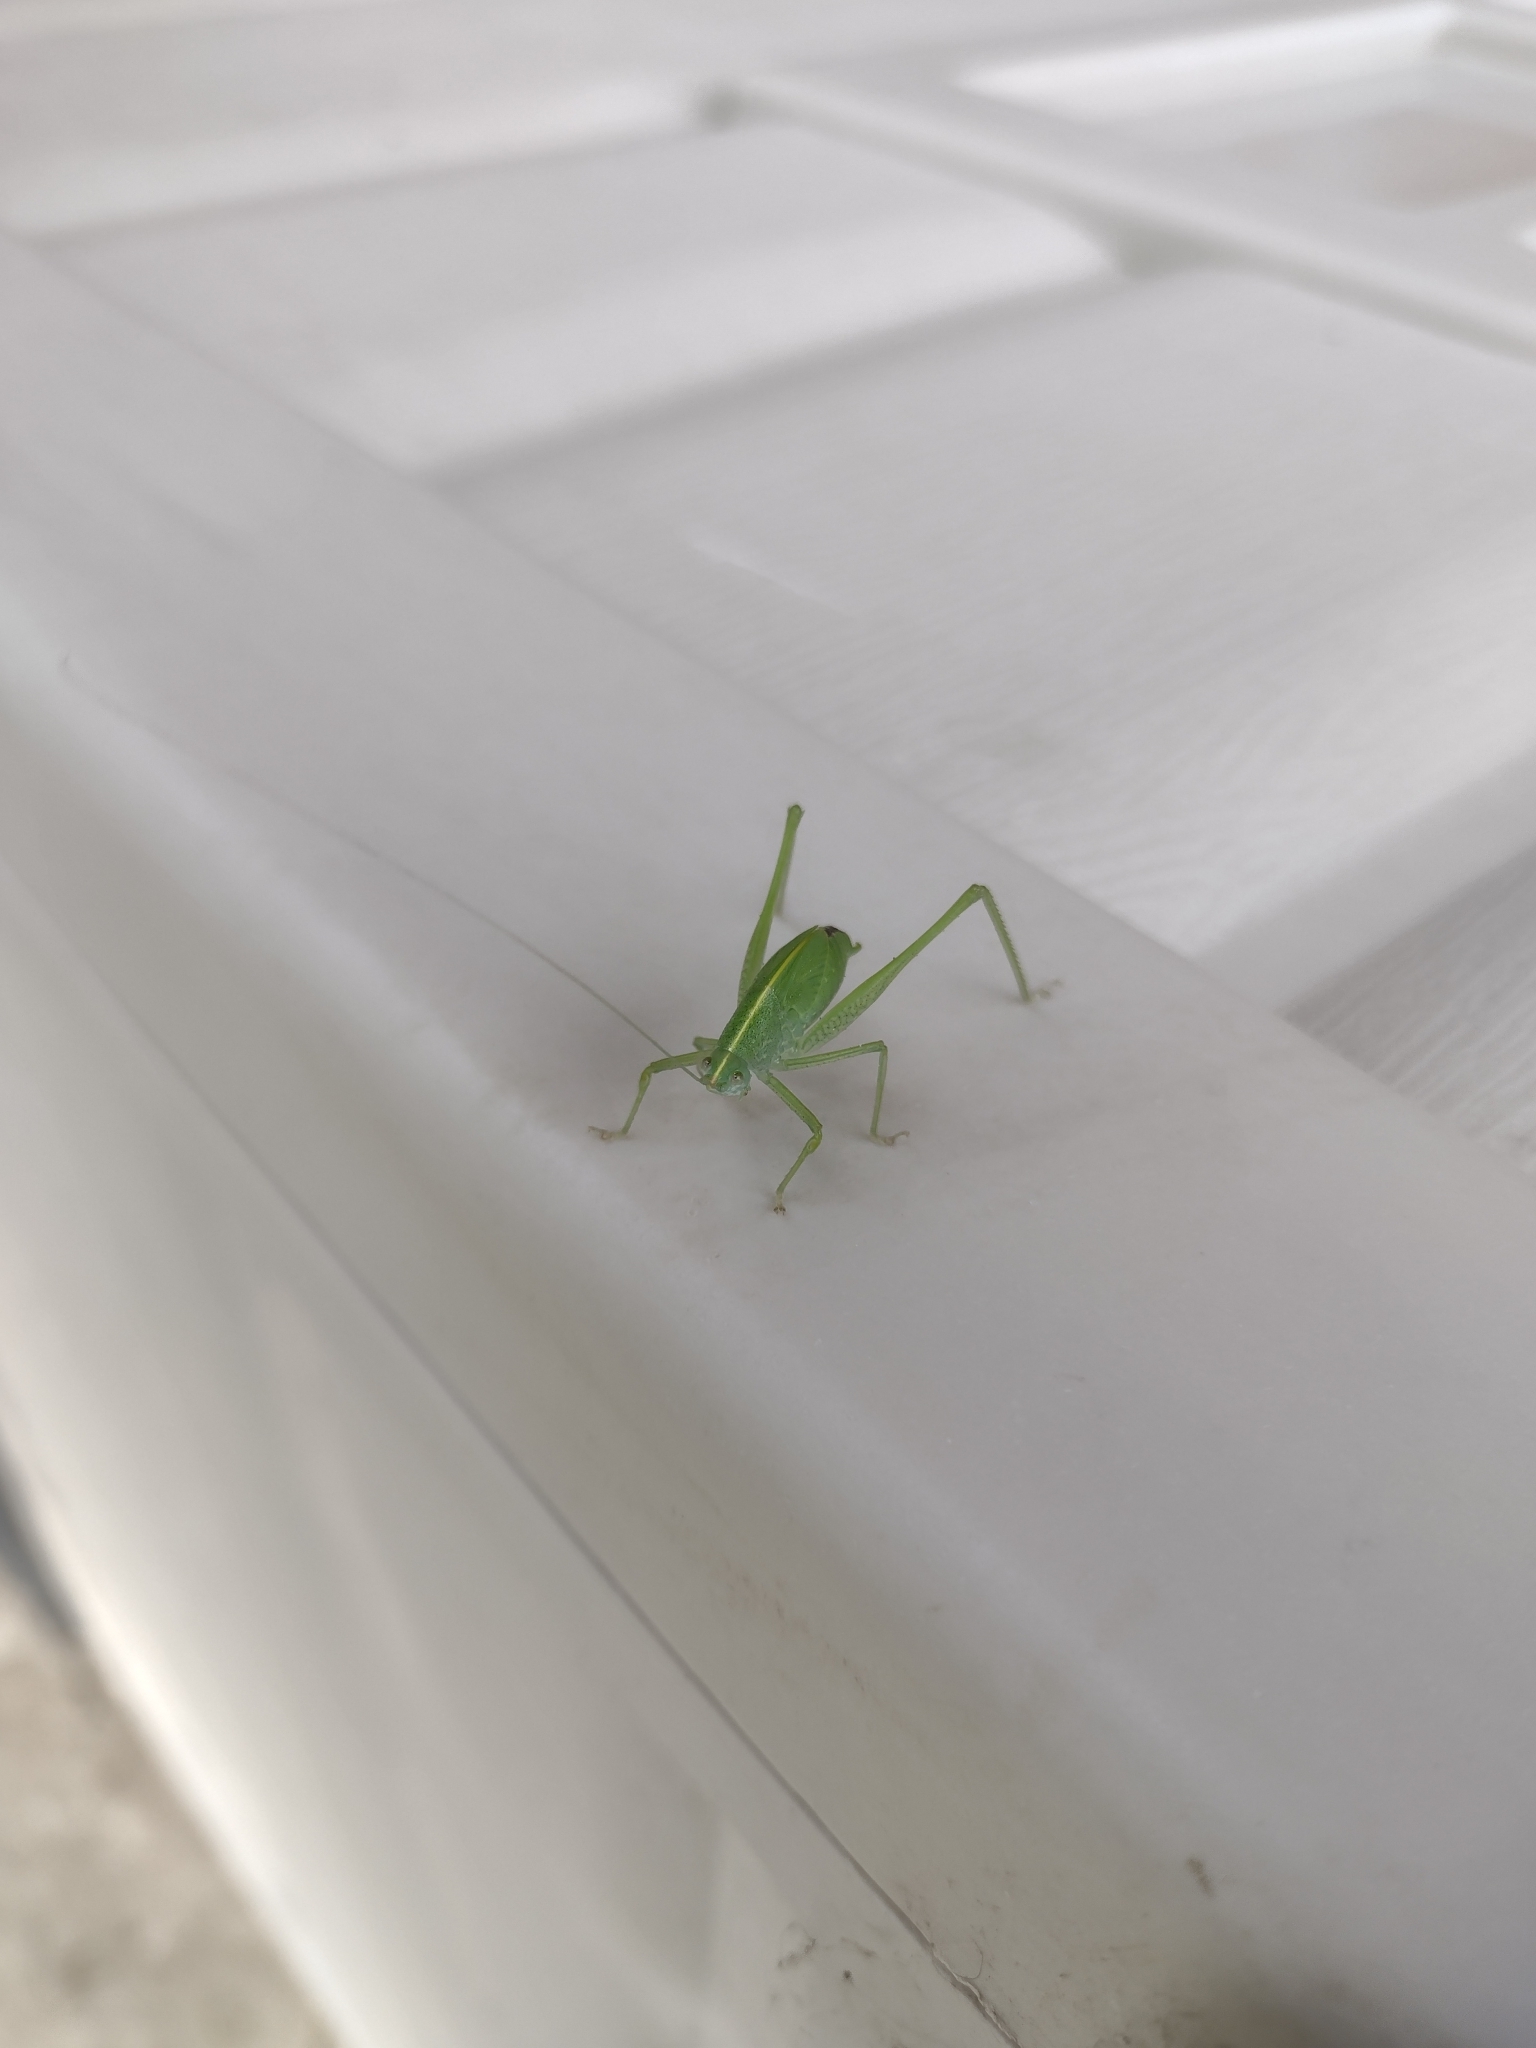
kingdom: Animalia
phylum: Arthropoda
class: Insecta
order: Orthoptera
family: Tettigoniidae
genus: Grammadera
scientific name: Grammadera clara
